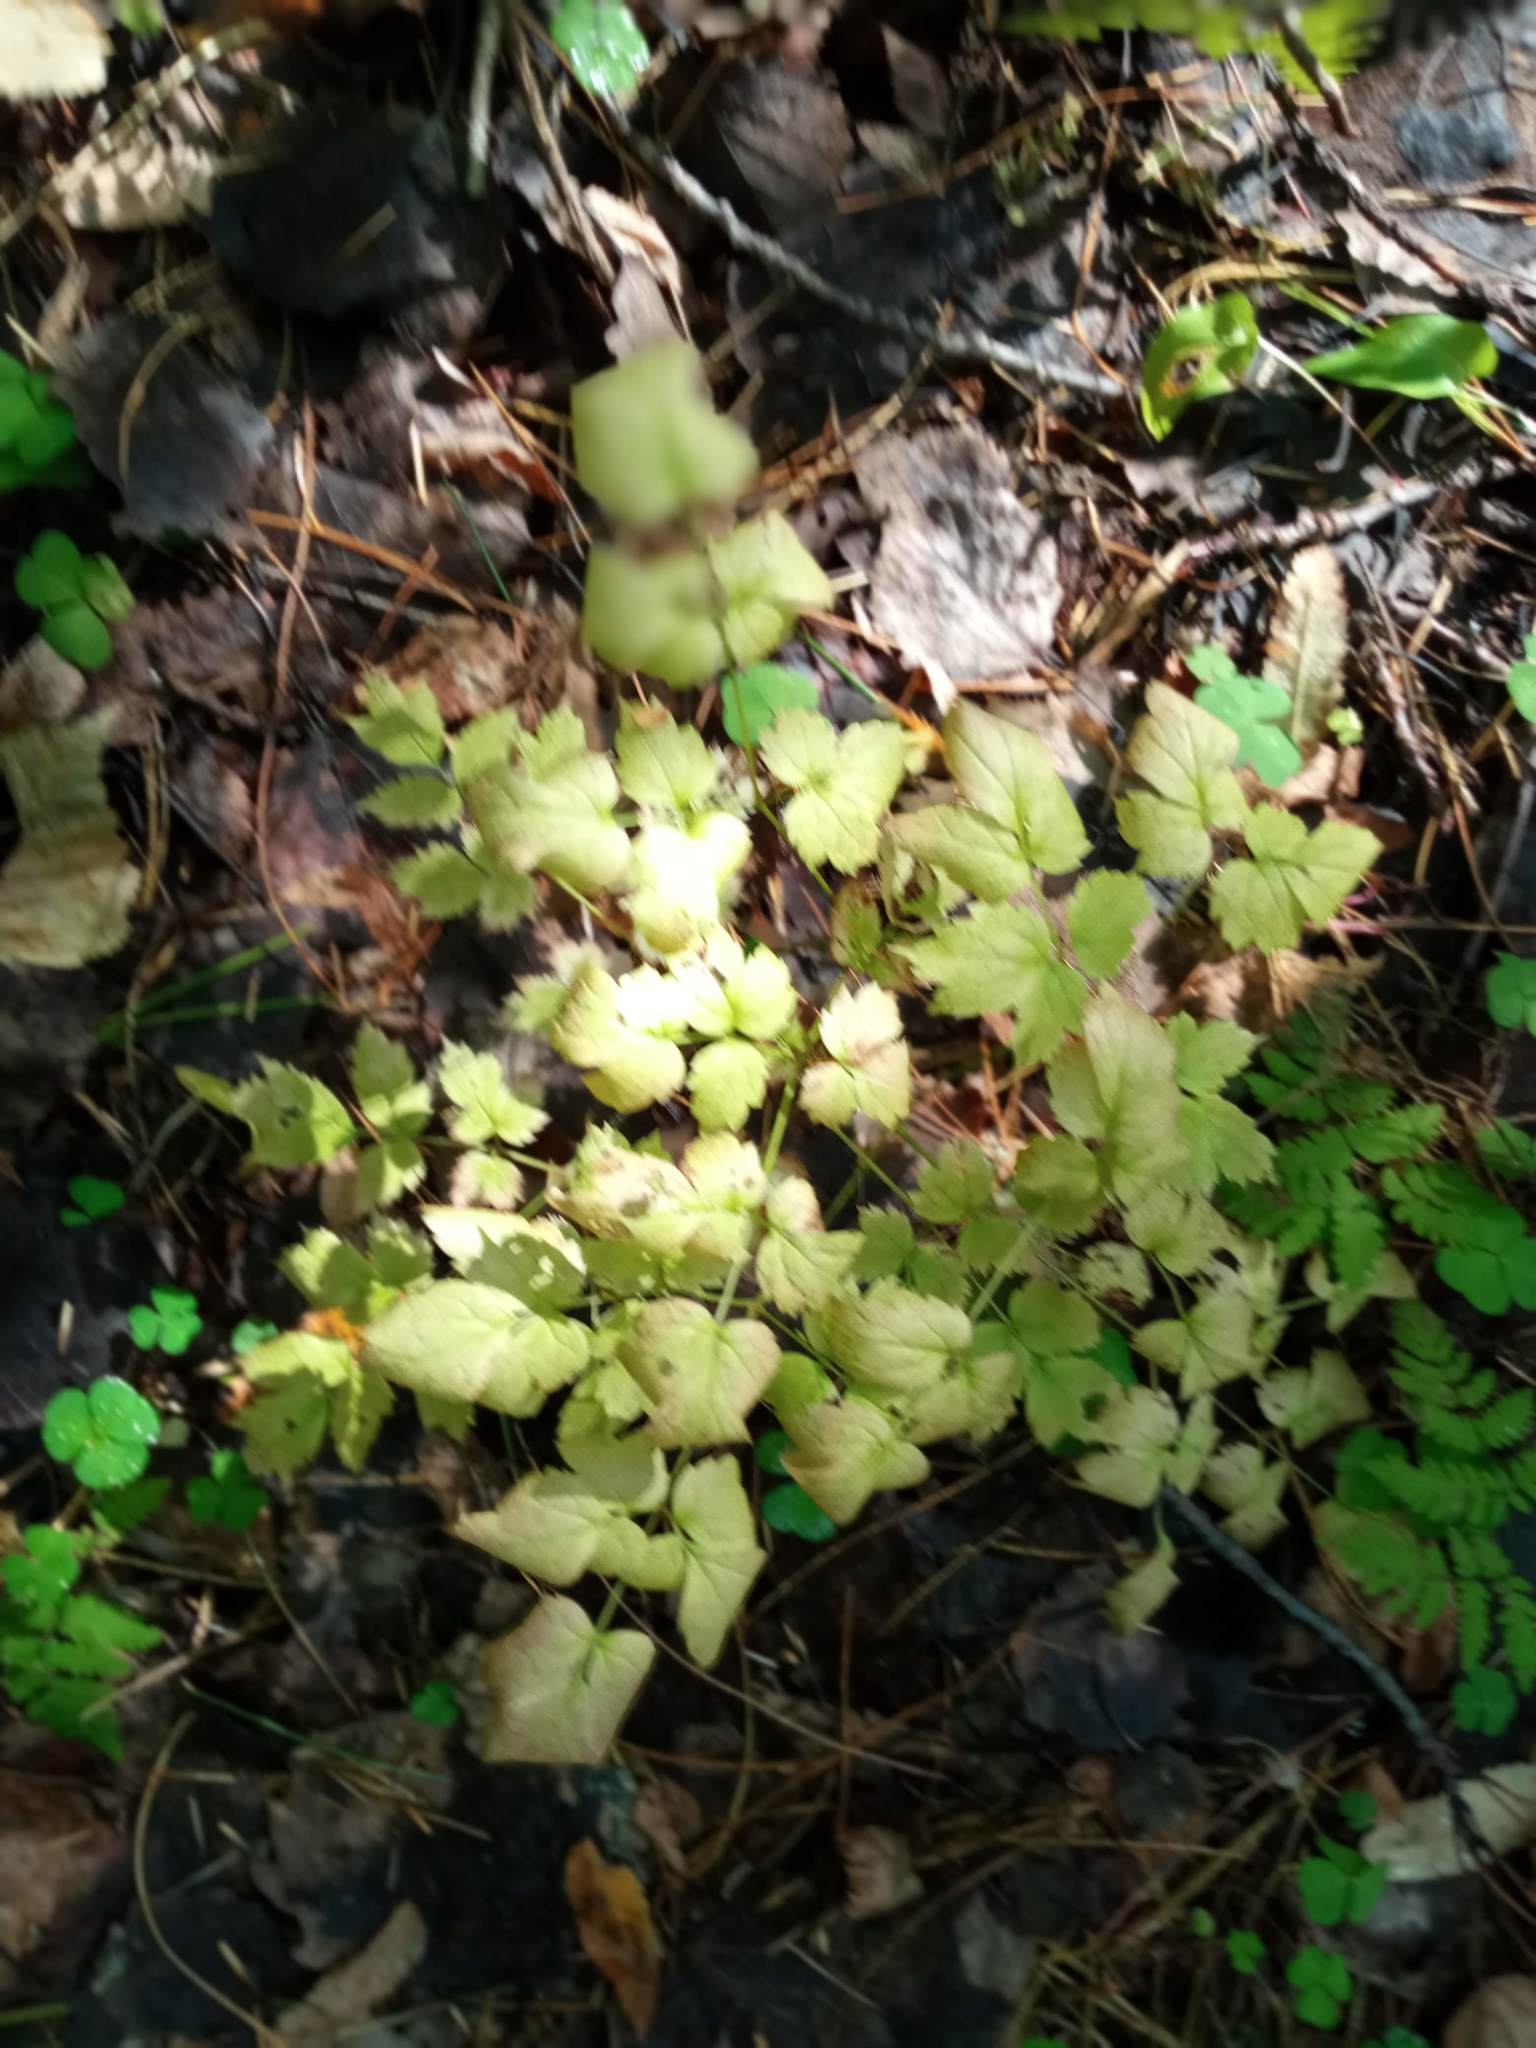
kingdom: Plantae
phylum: Tracheophyta
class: Magnoliopsida
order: Ranunculales
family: Ranunculaceae
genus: Actaea
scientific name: Actaea erythrocarpa
